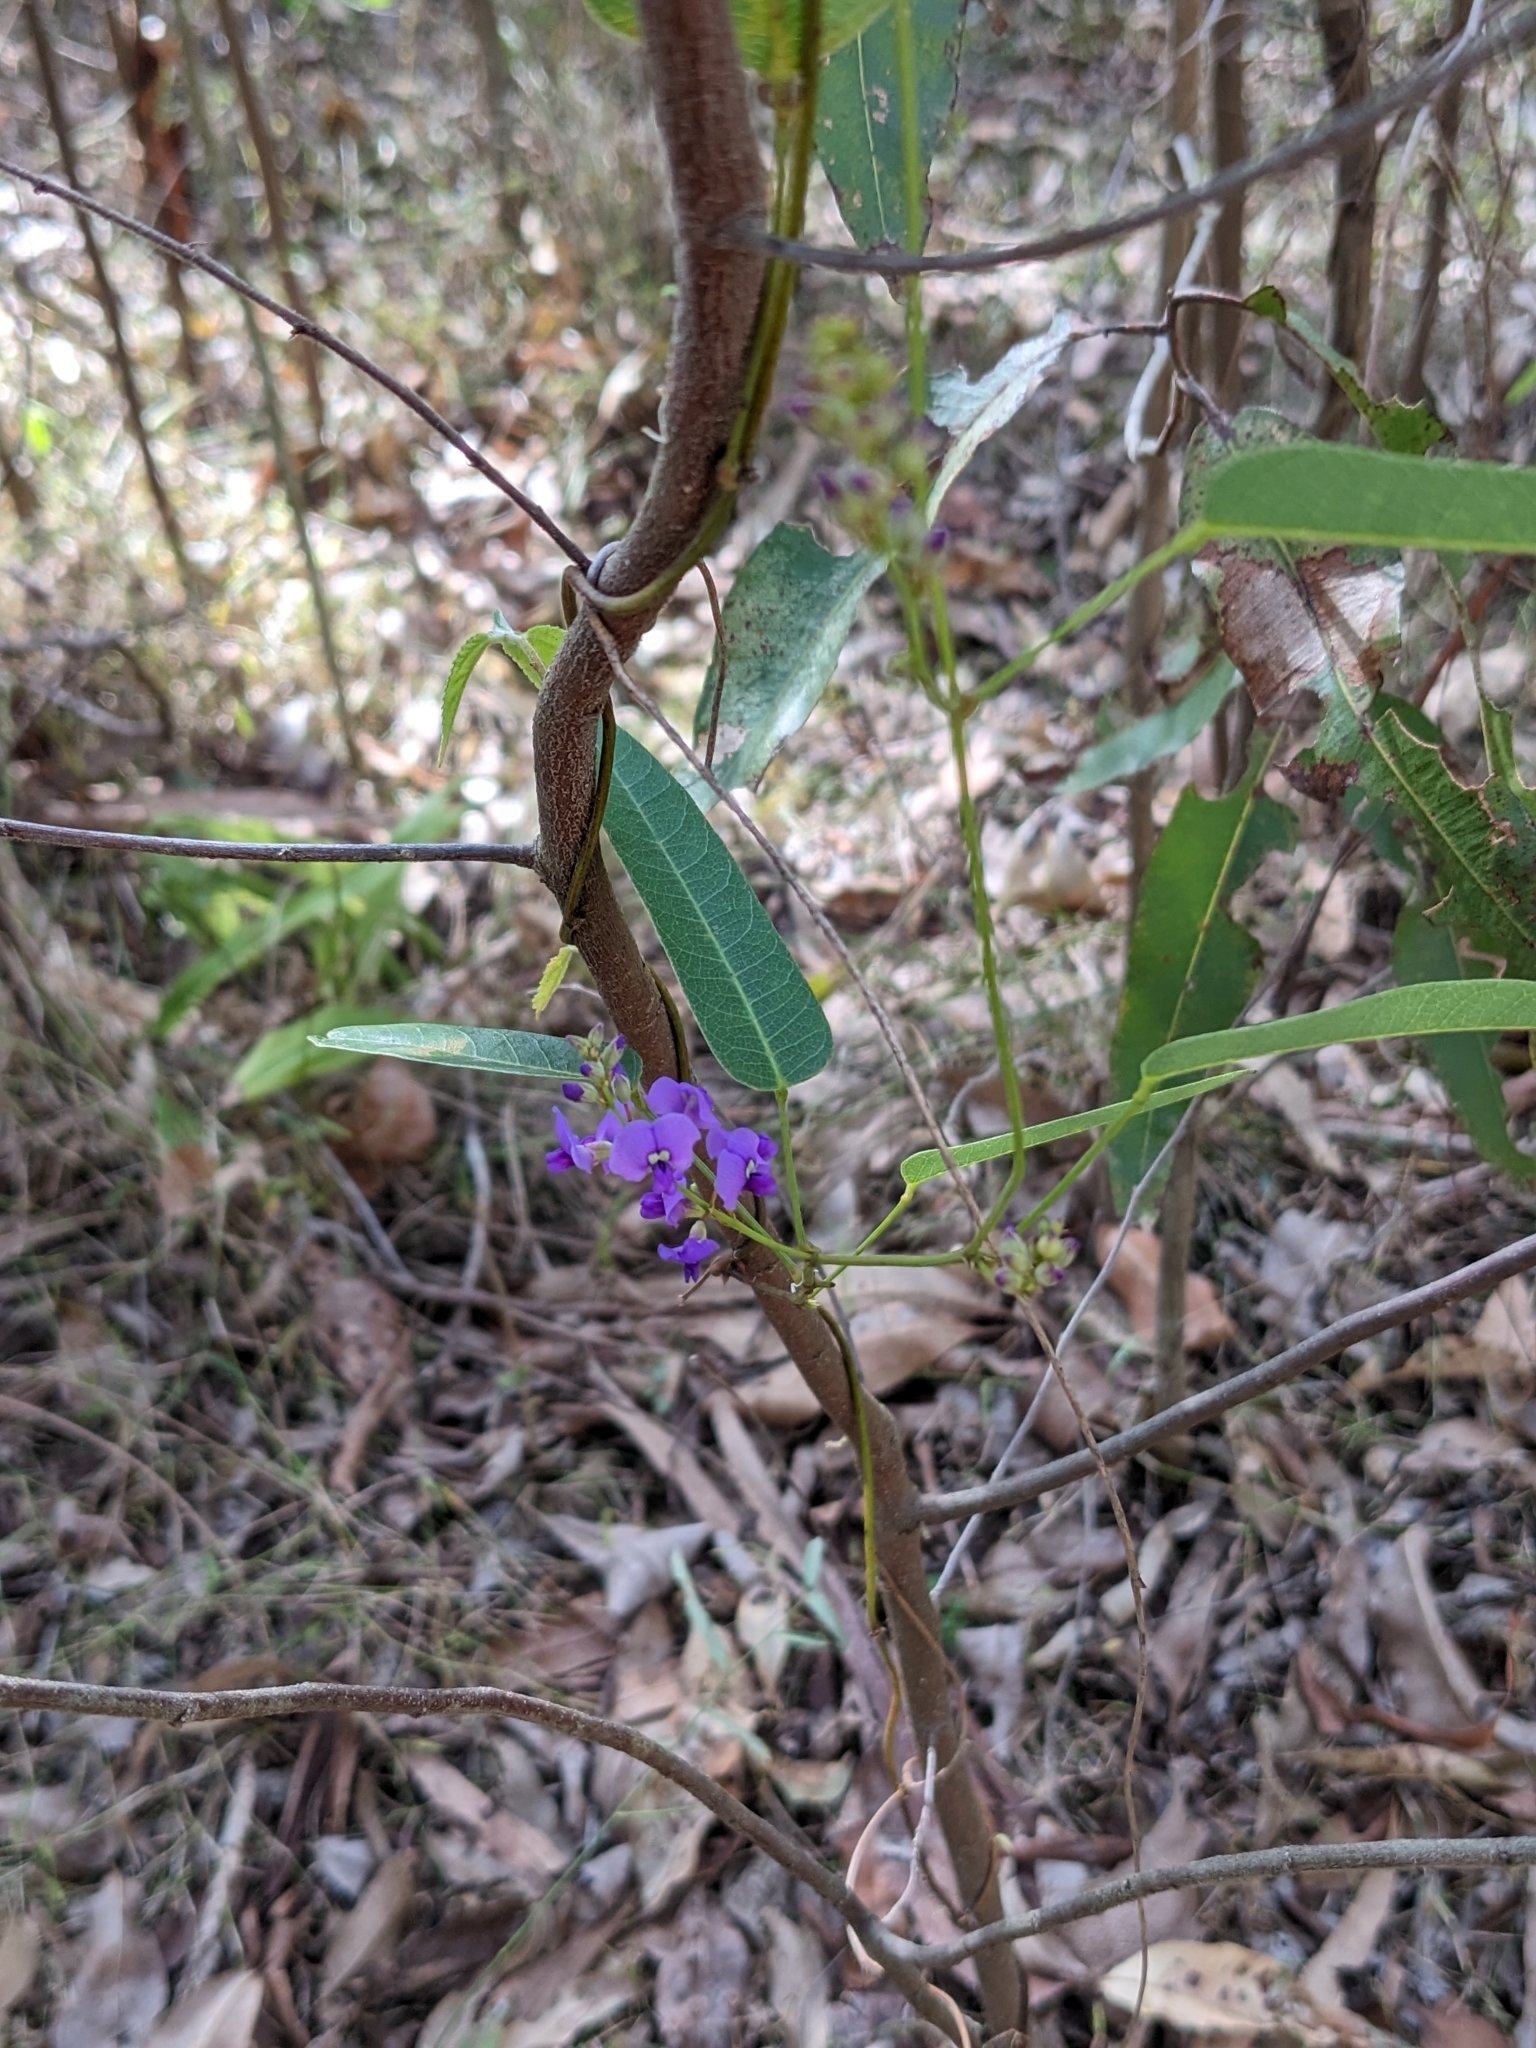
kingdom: Plantae
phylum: Tracheophyta
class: Magnoliopsida
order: Fabales
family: Fabaceae
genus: Hardenbergia
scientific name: Hardenbergia violacea
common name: Coral-pea
